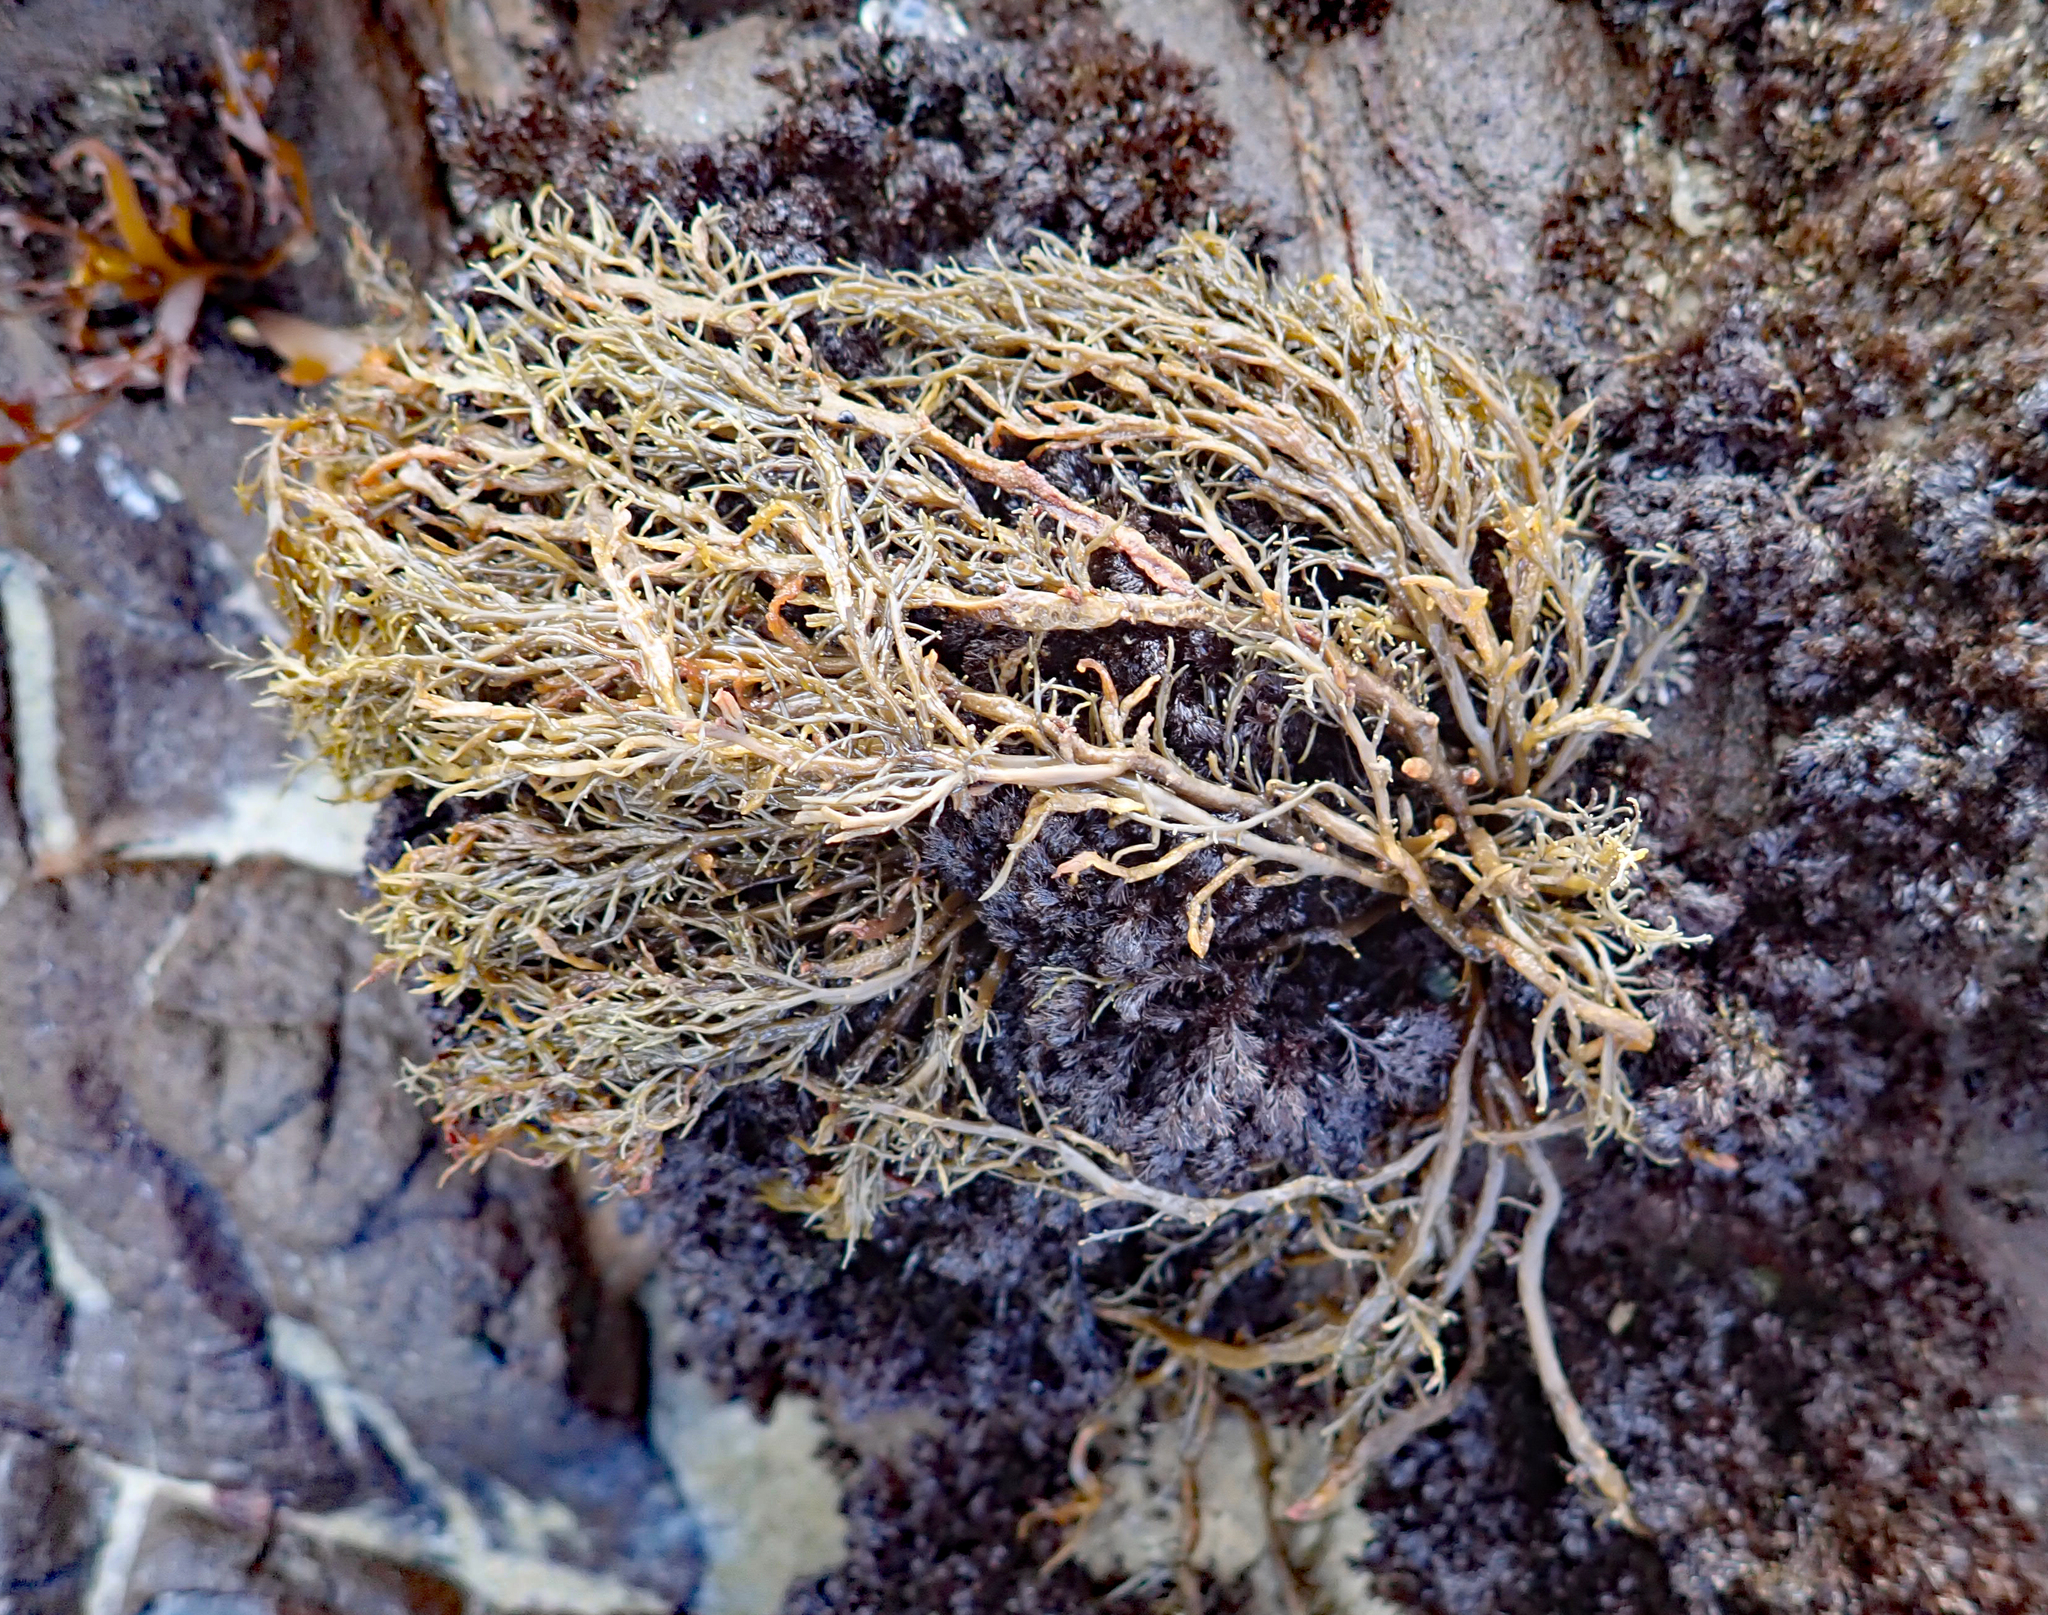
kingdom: Chromista
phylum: Ochrophyta
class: Phaeophyceae
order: Scytothamnales
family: Scytothamnaceae
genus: Scytothamnus
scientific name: Scytothamnus australis
